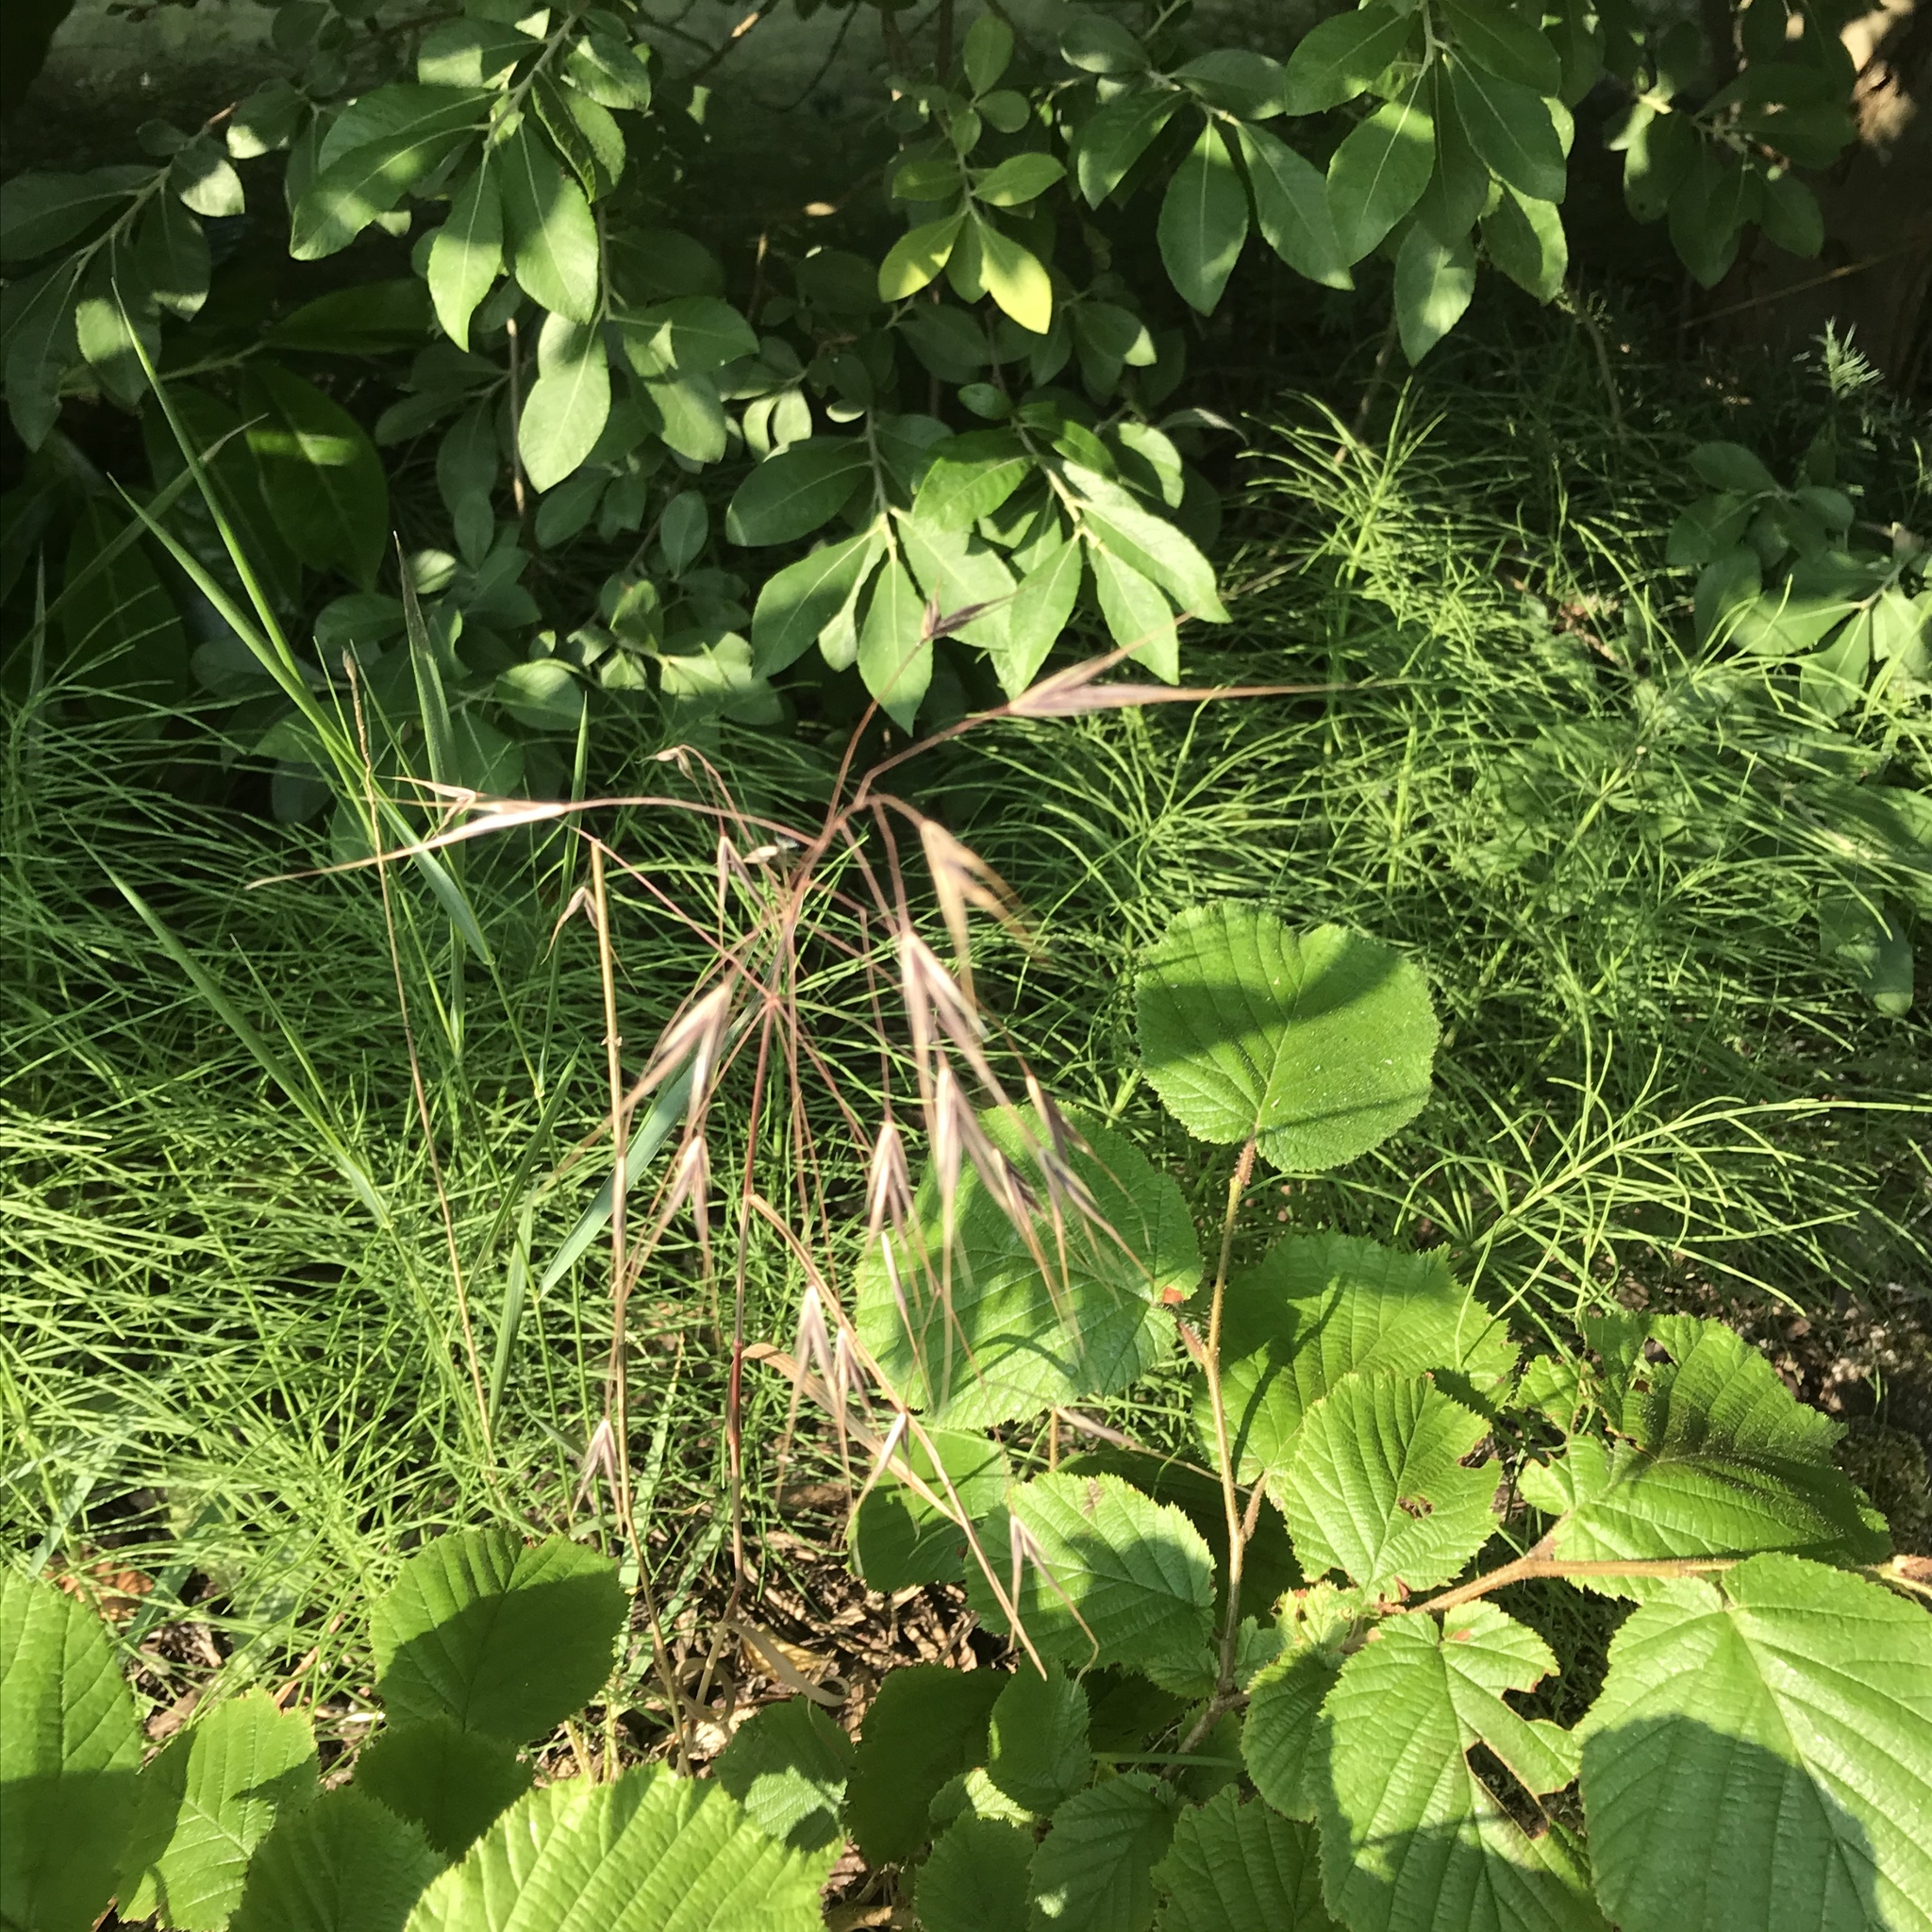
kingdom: Plantae
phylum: Tracheophyta
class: Liliopsida
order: Poales
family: Poaceae
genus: Bromus
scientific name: Bromus sterilis
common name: Poverty brome
